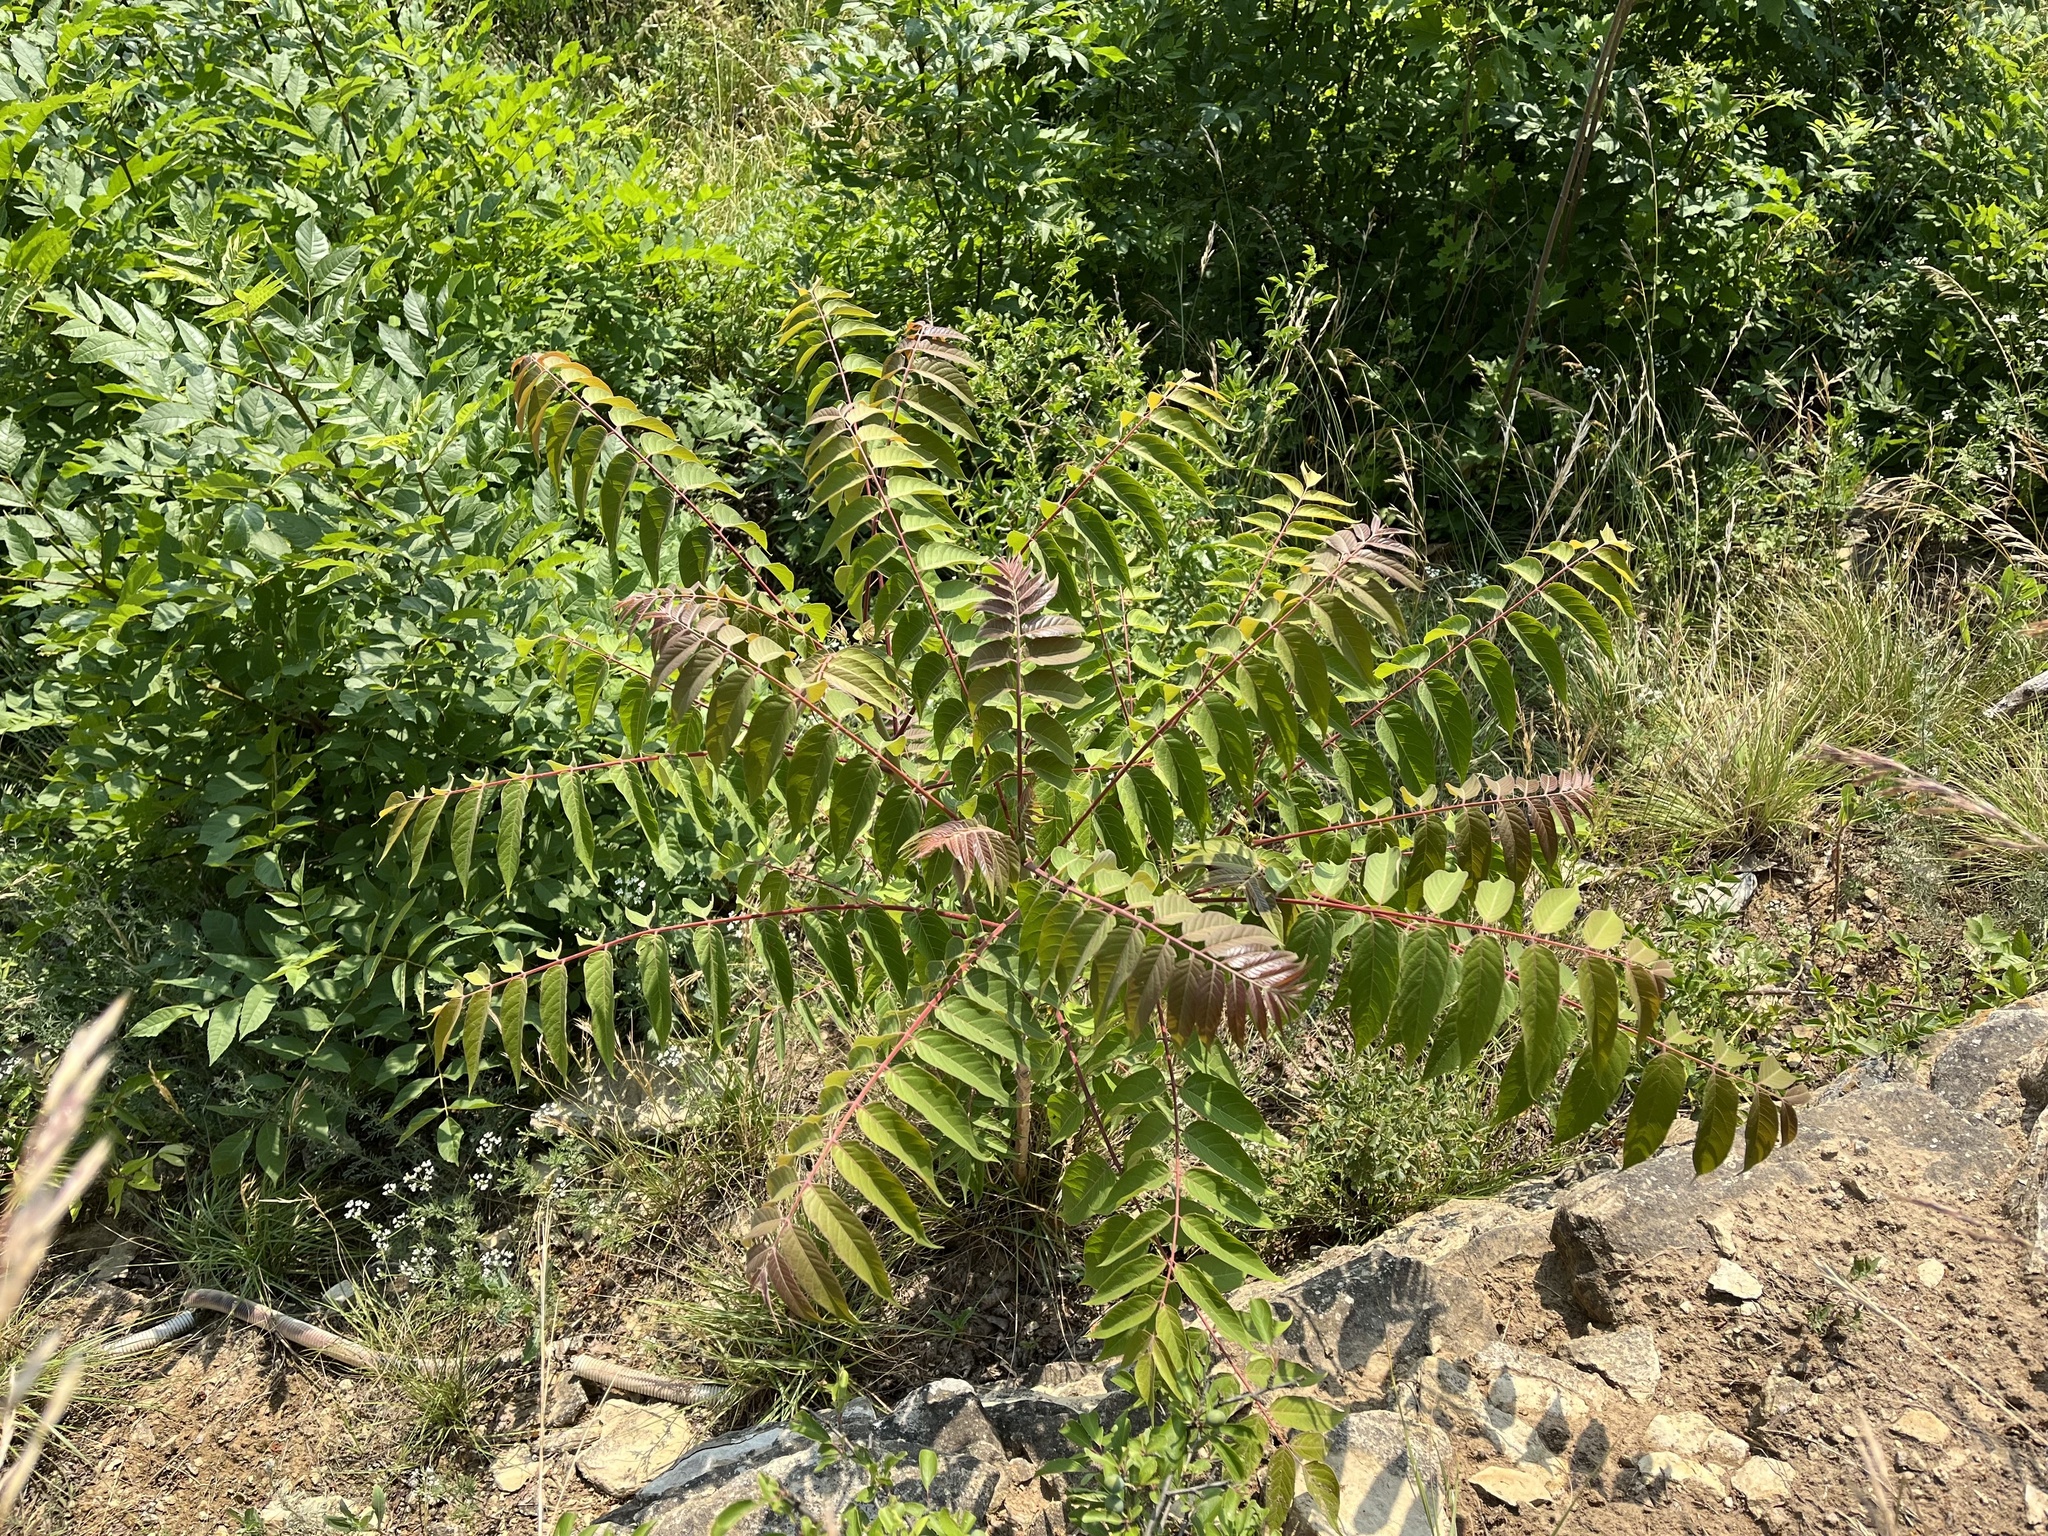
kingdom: Plantae
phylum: Tracheophyta
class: Magnoliopsida
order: Sapindales
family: Simaroubaceae
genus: Ailanthus
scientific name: Ailanthus altissima
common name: Tree-of-heaven
